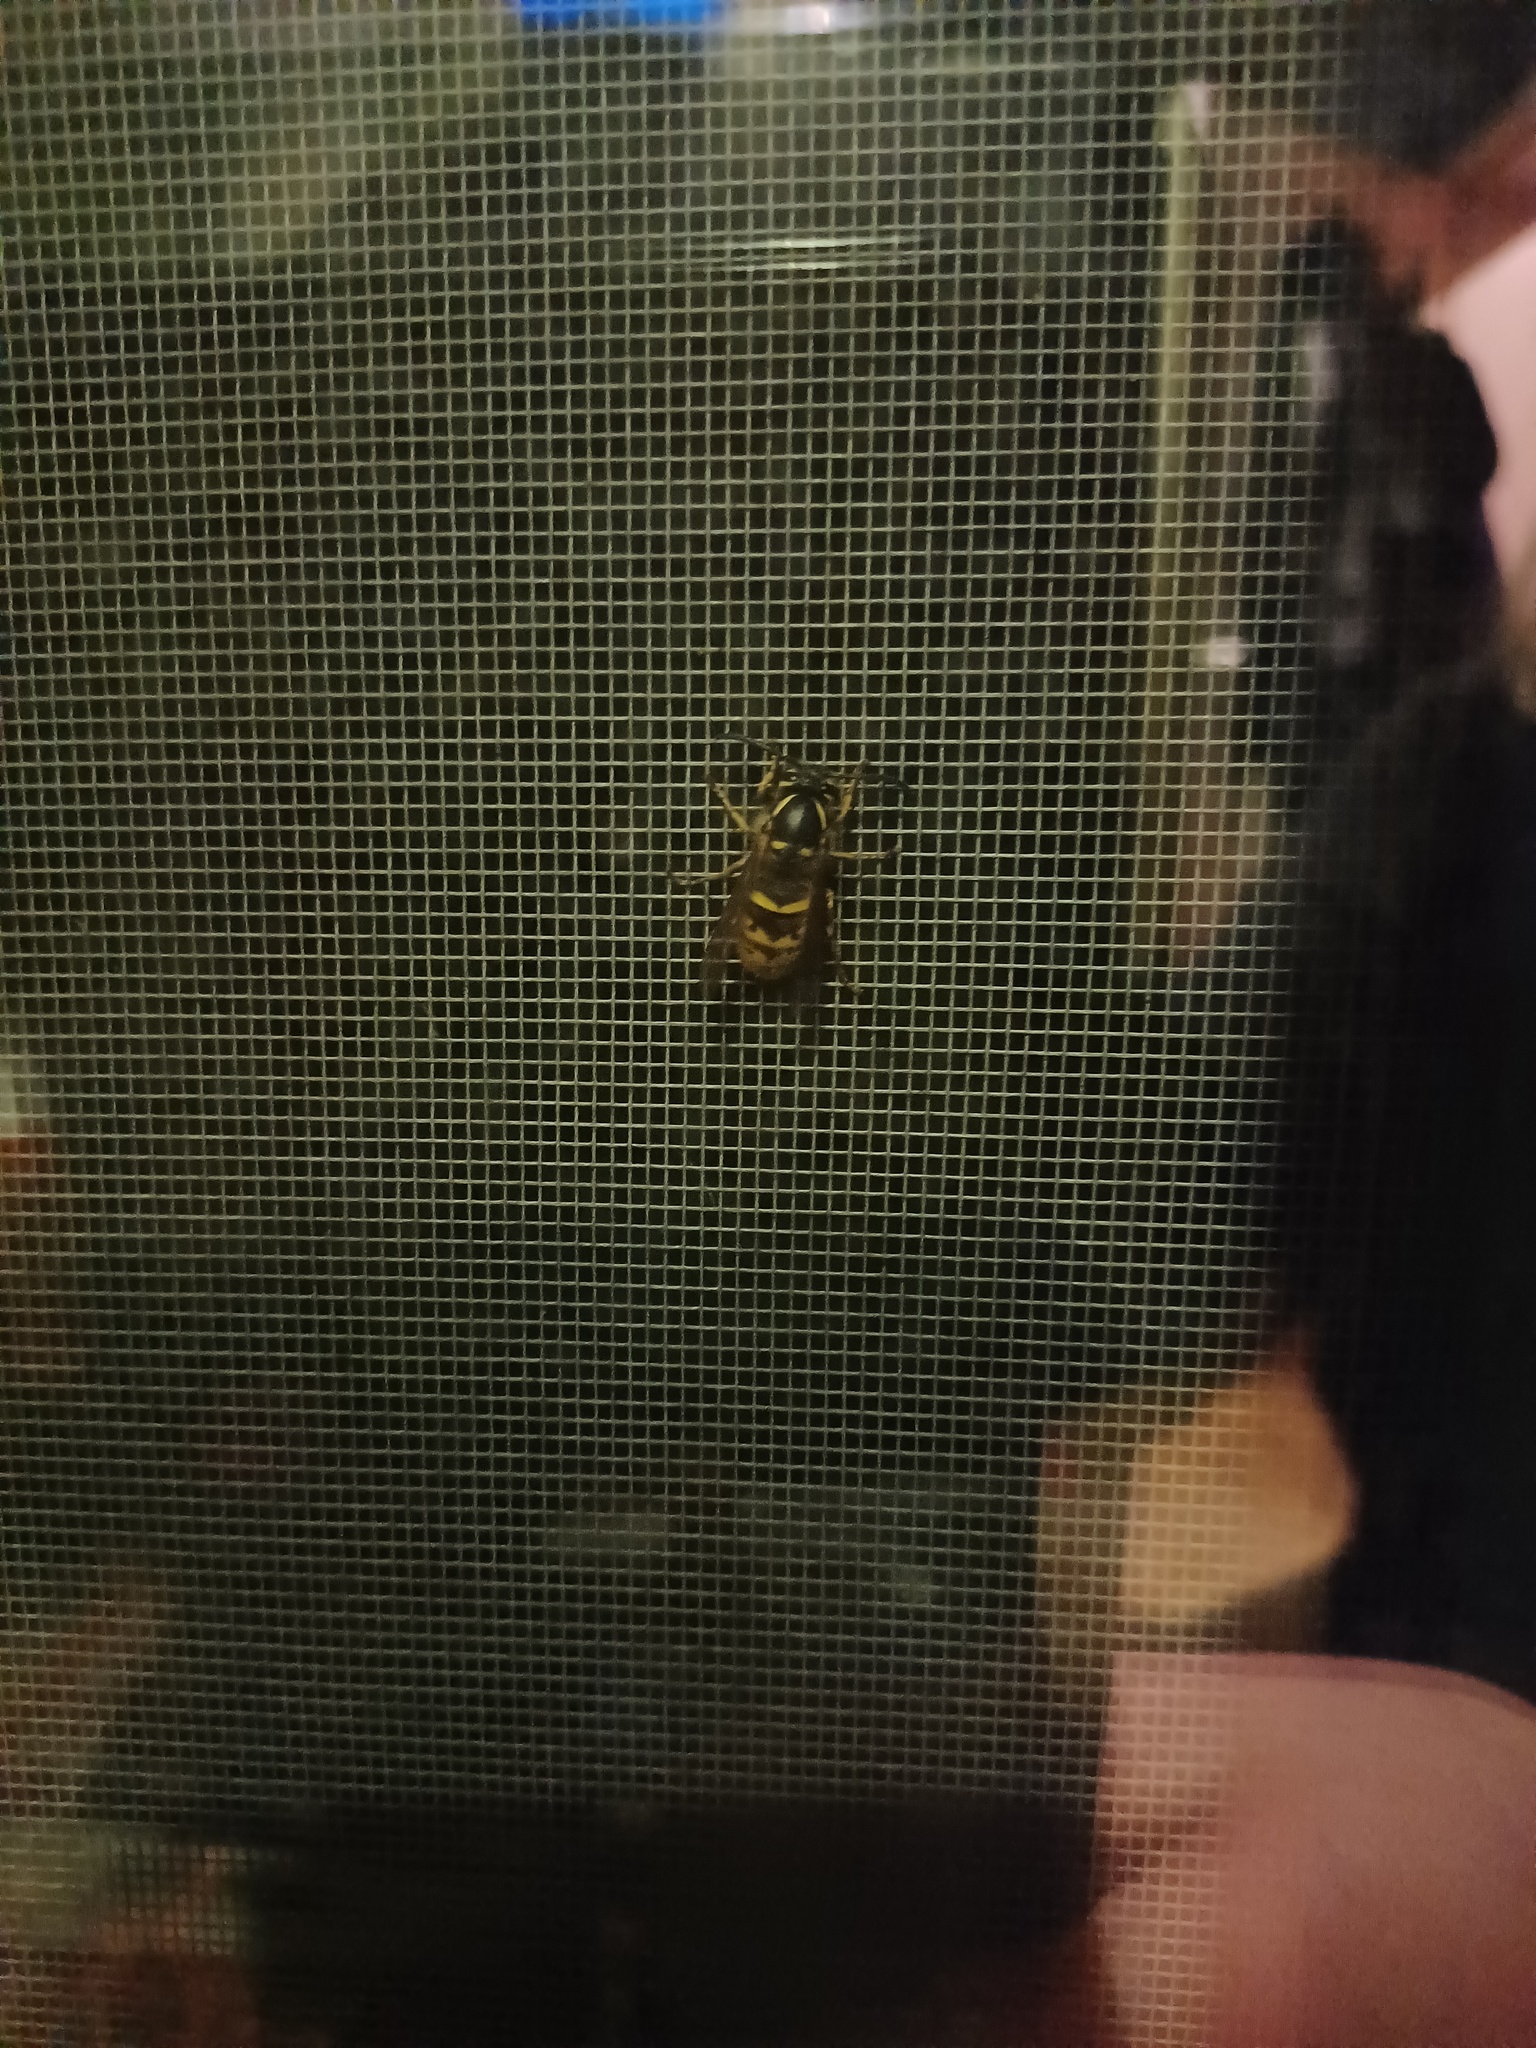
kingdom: Animalia
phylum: Arthropoda
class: Insecta
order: Hymenoptera
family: Vespidae
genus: Vespula
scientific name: Vespula vulgaris
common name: Common wasp
